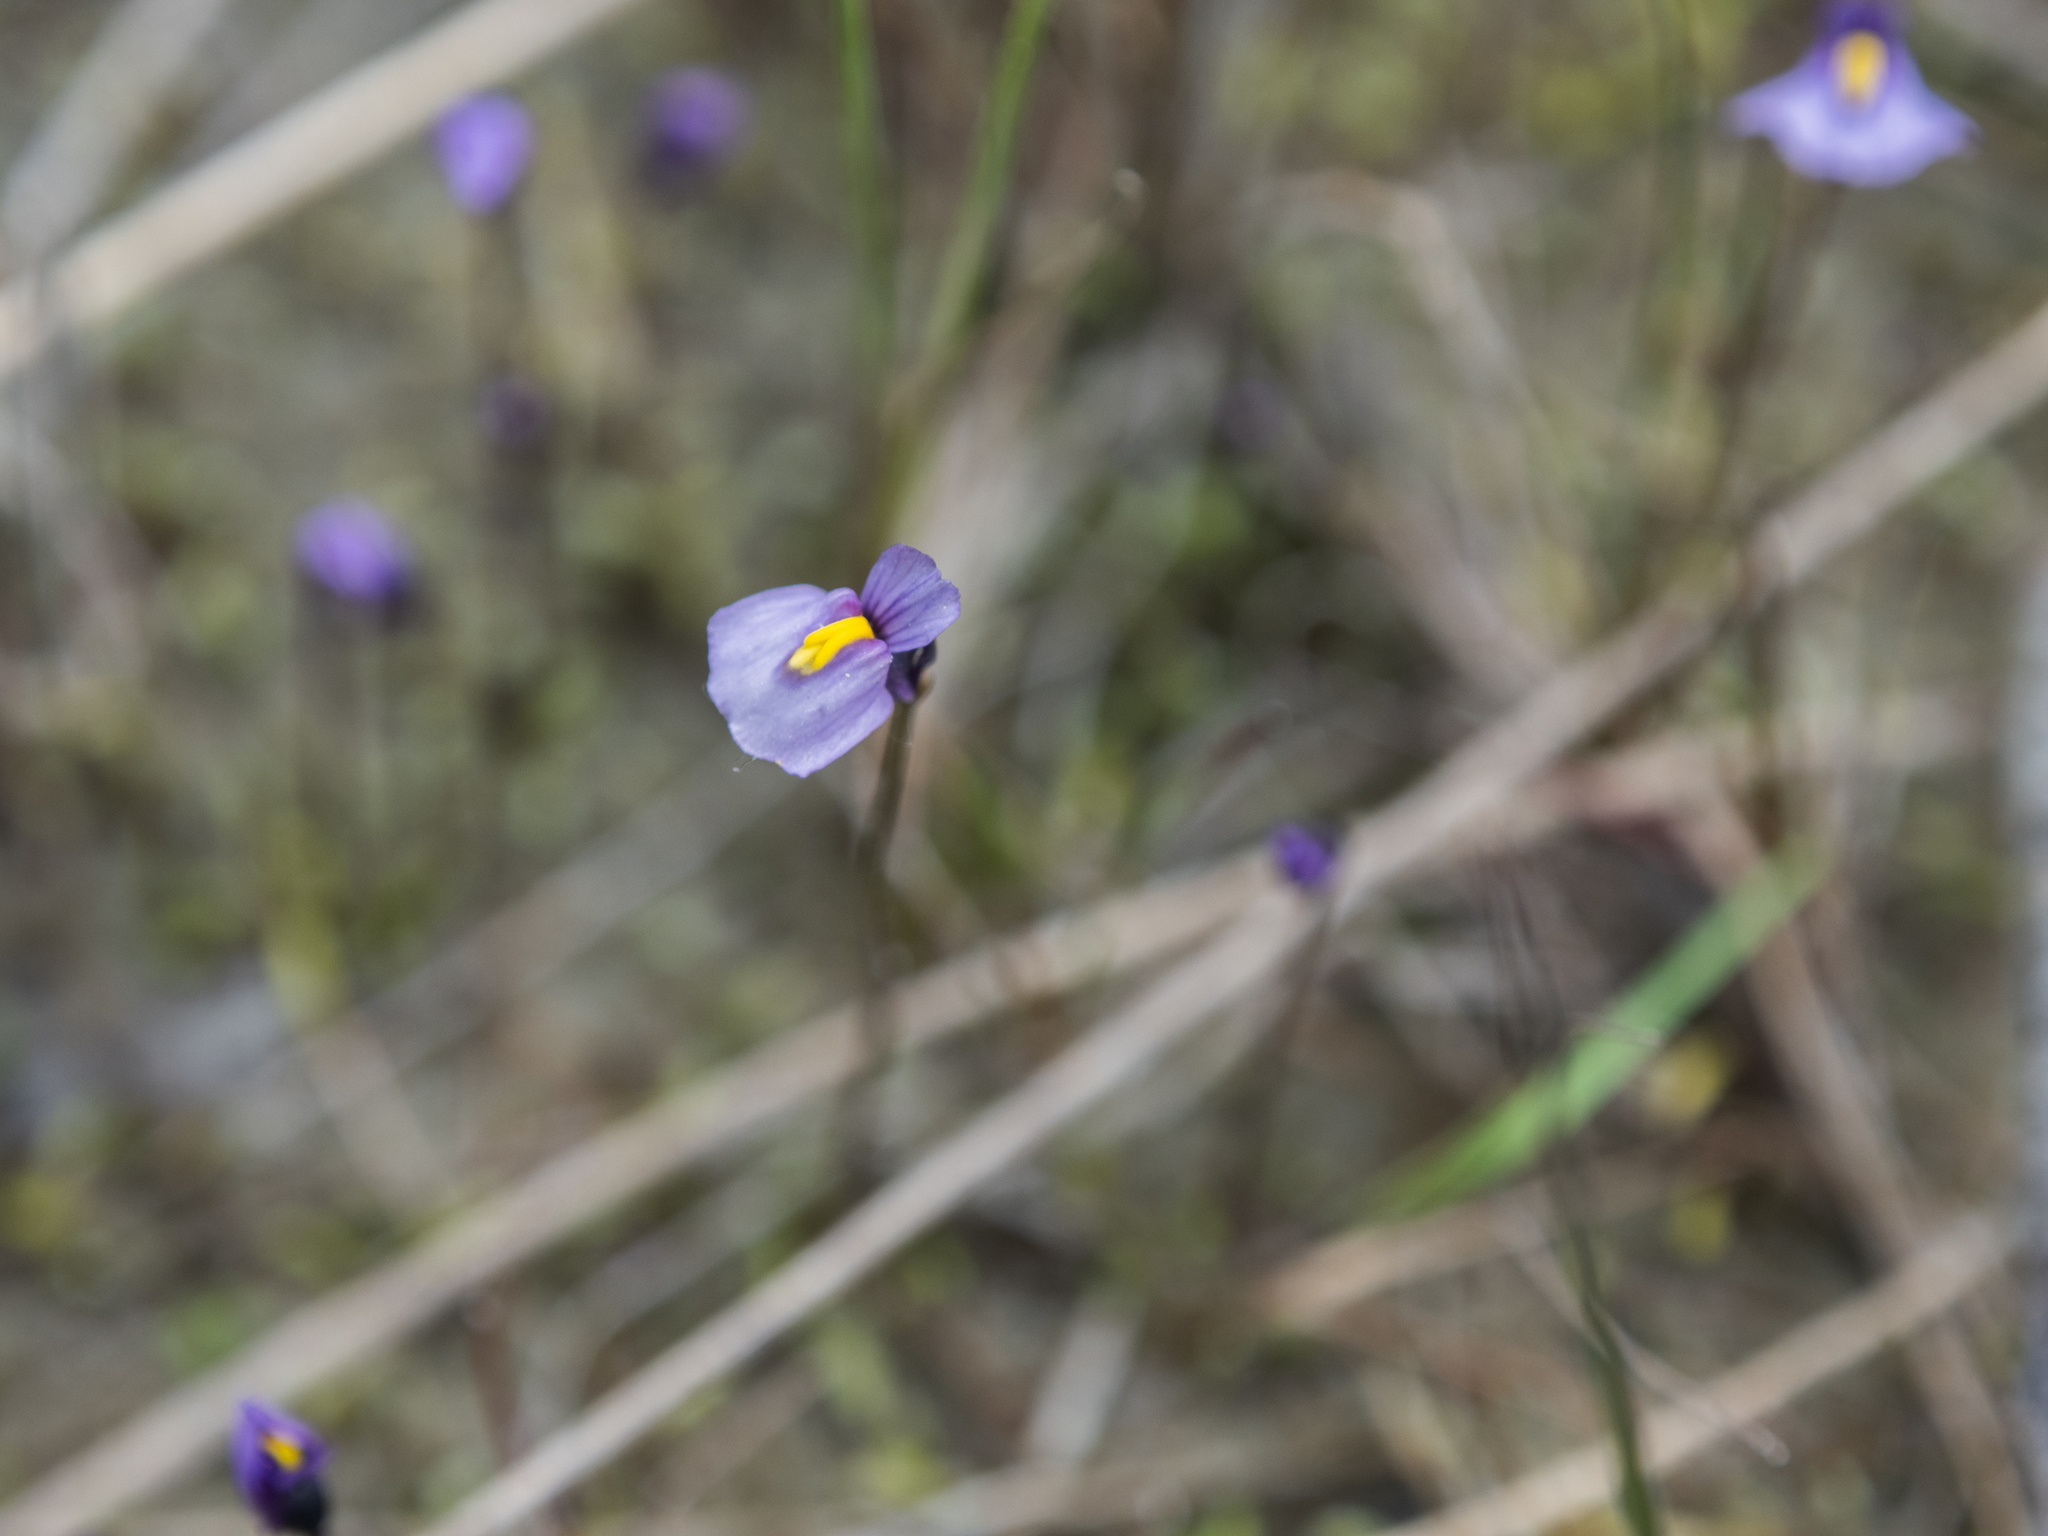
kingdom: Plantae
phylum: Tracheophyta
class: Magnoliopsida
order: Lamiales
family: Lentibulariaceae
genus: Utricularia
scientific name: Utricularia dichotoma
